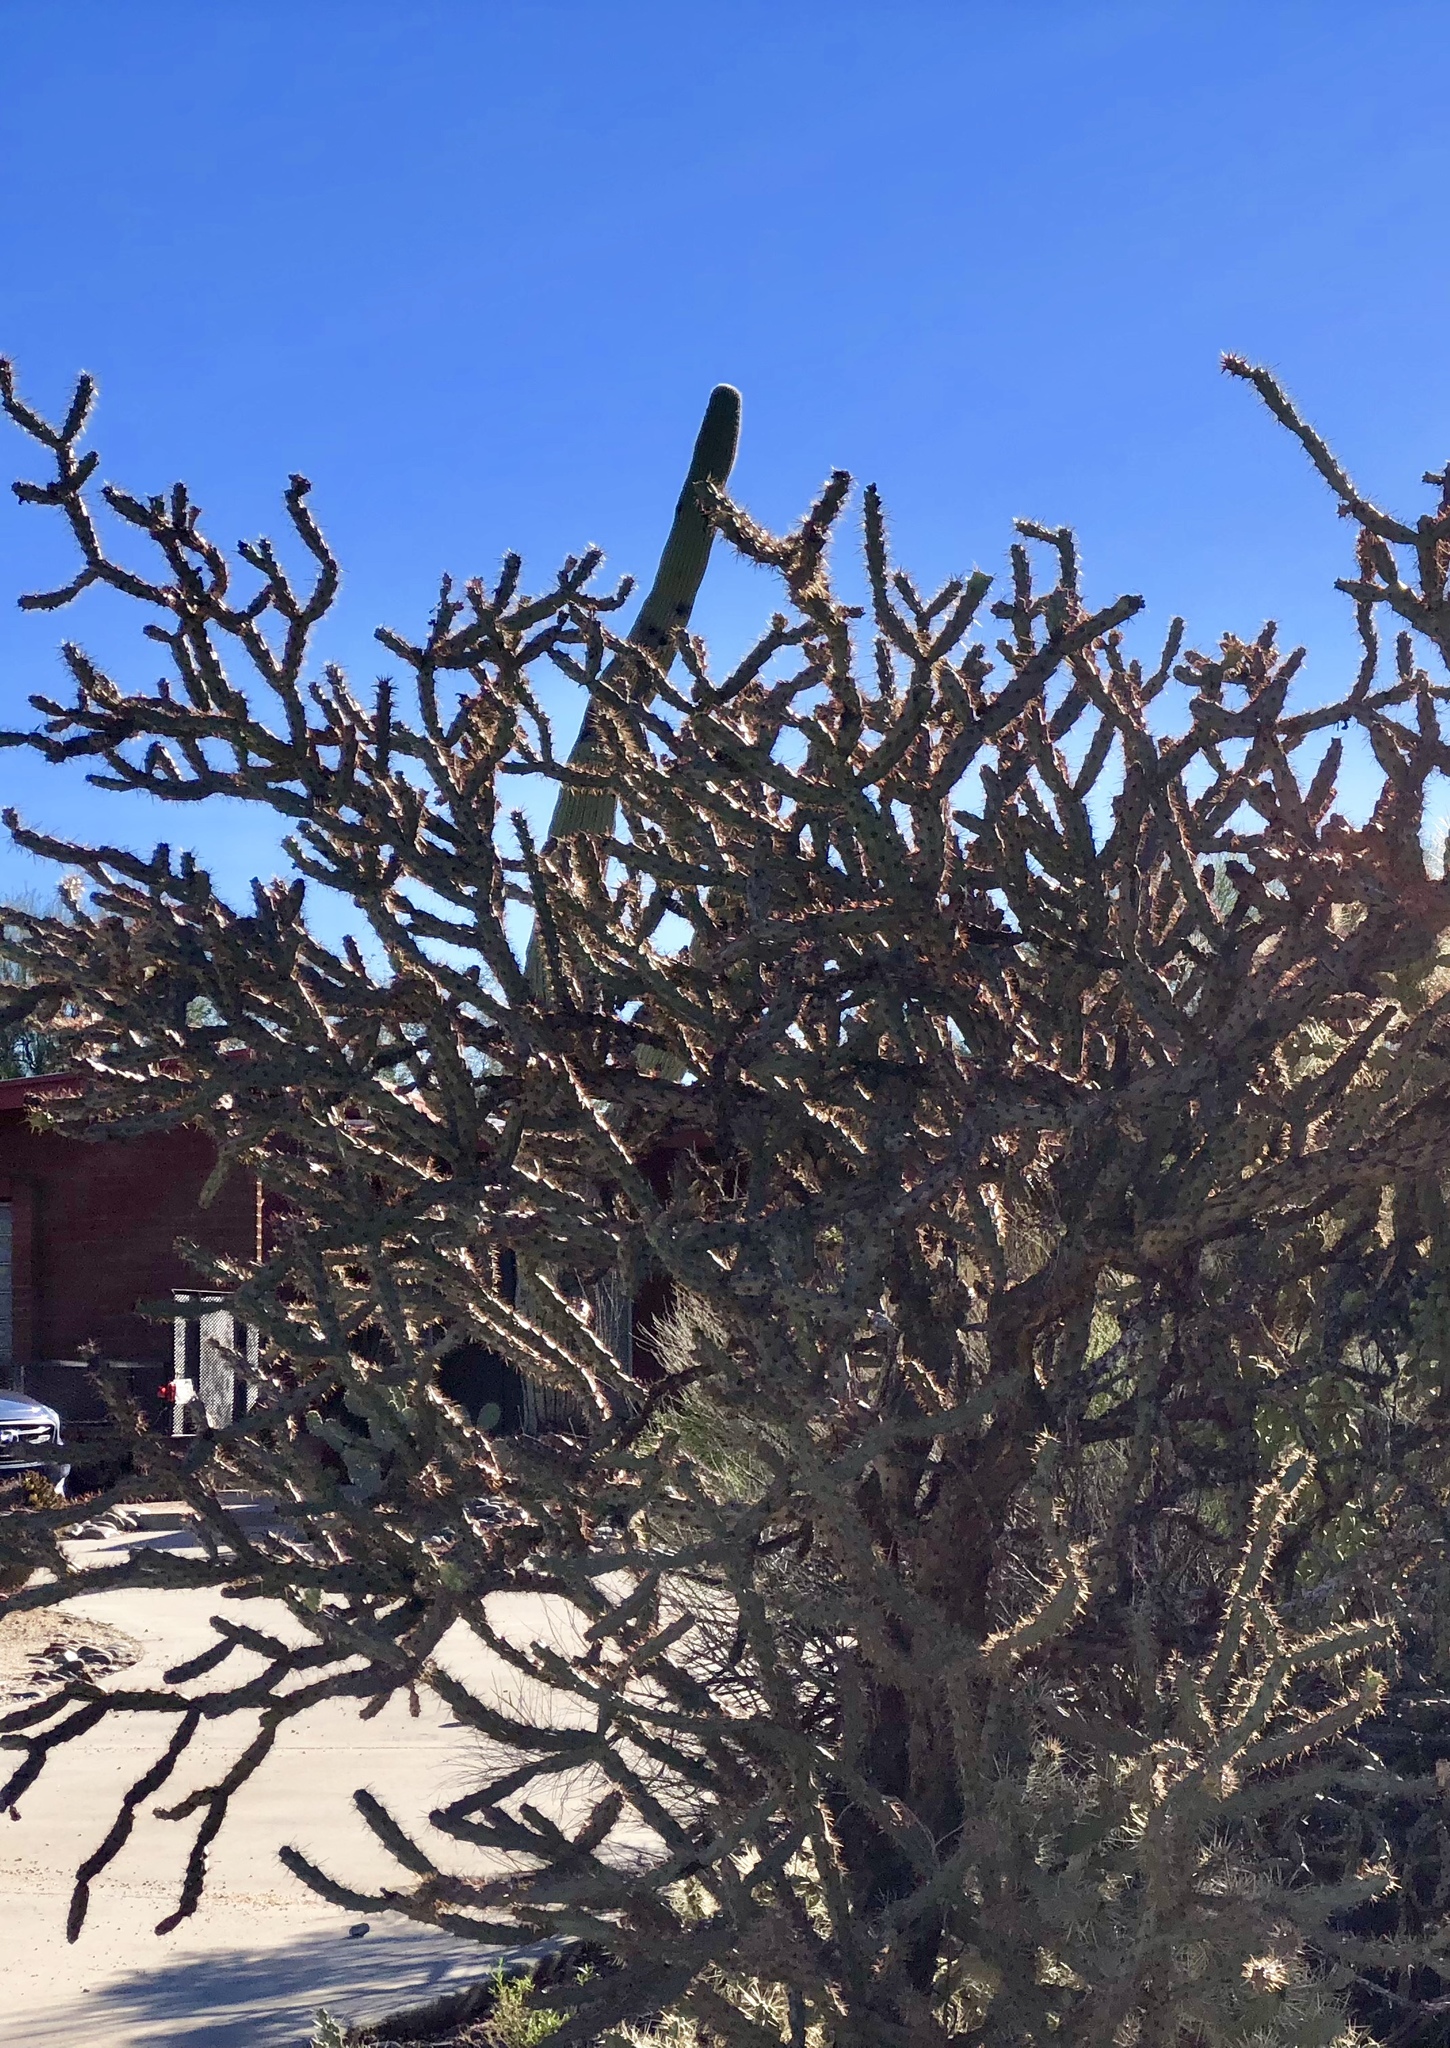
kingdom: Plantae
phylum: Tracheophyta
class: Magnoliopsida
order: Caryophyllales
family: Cactaceae
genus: Cylindropuntia
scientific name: Cylindropuntia thurberi
